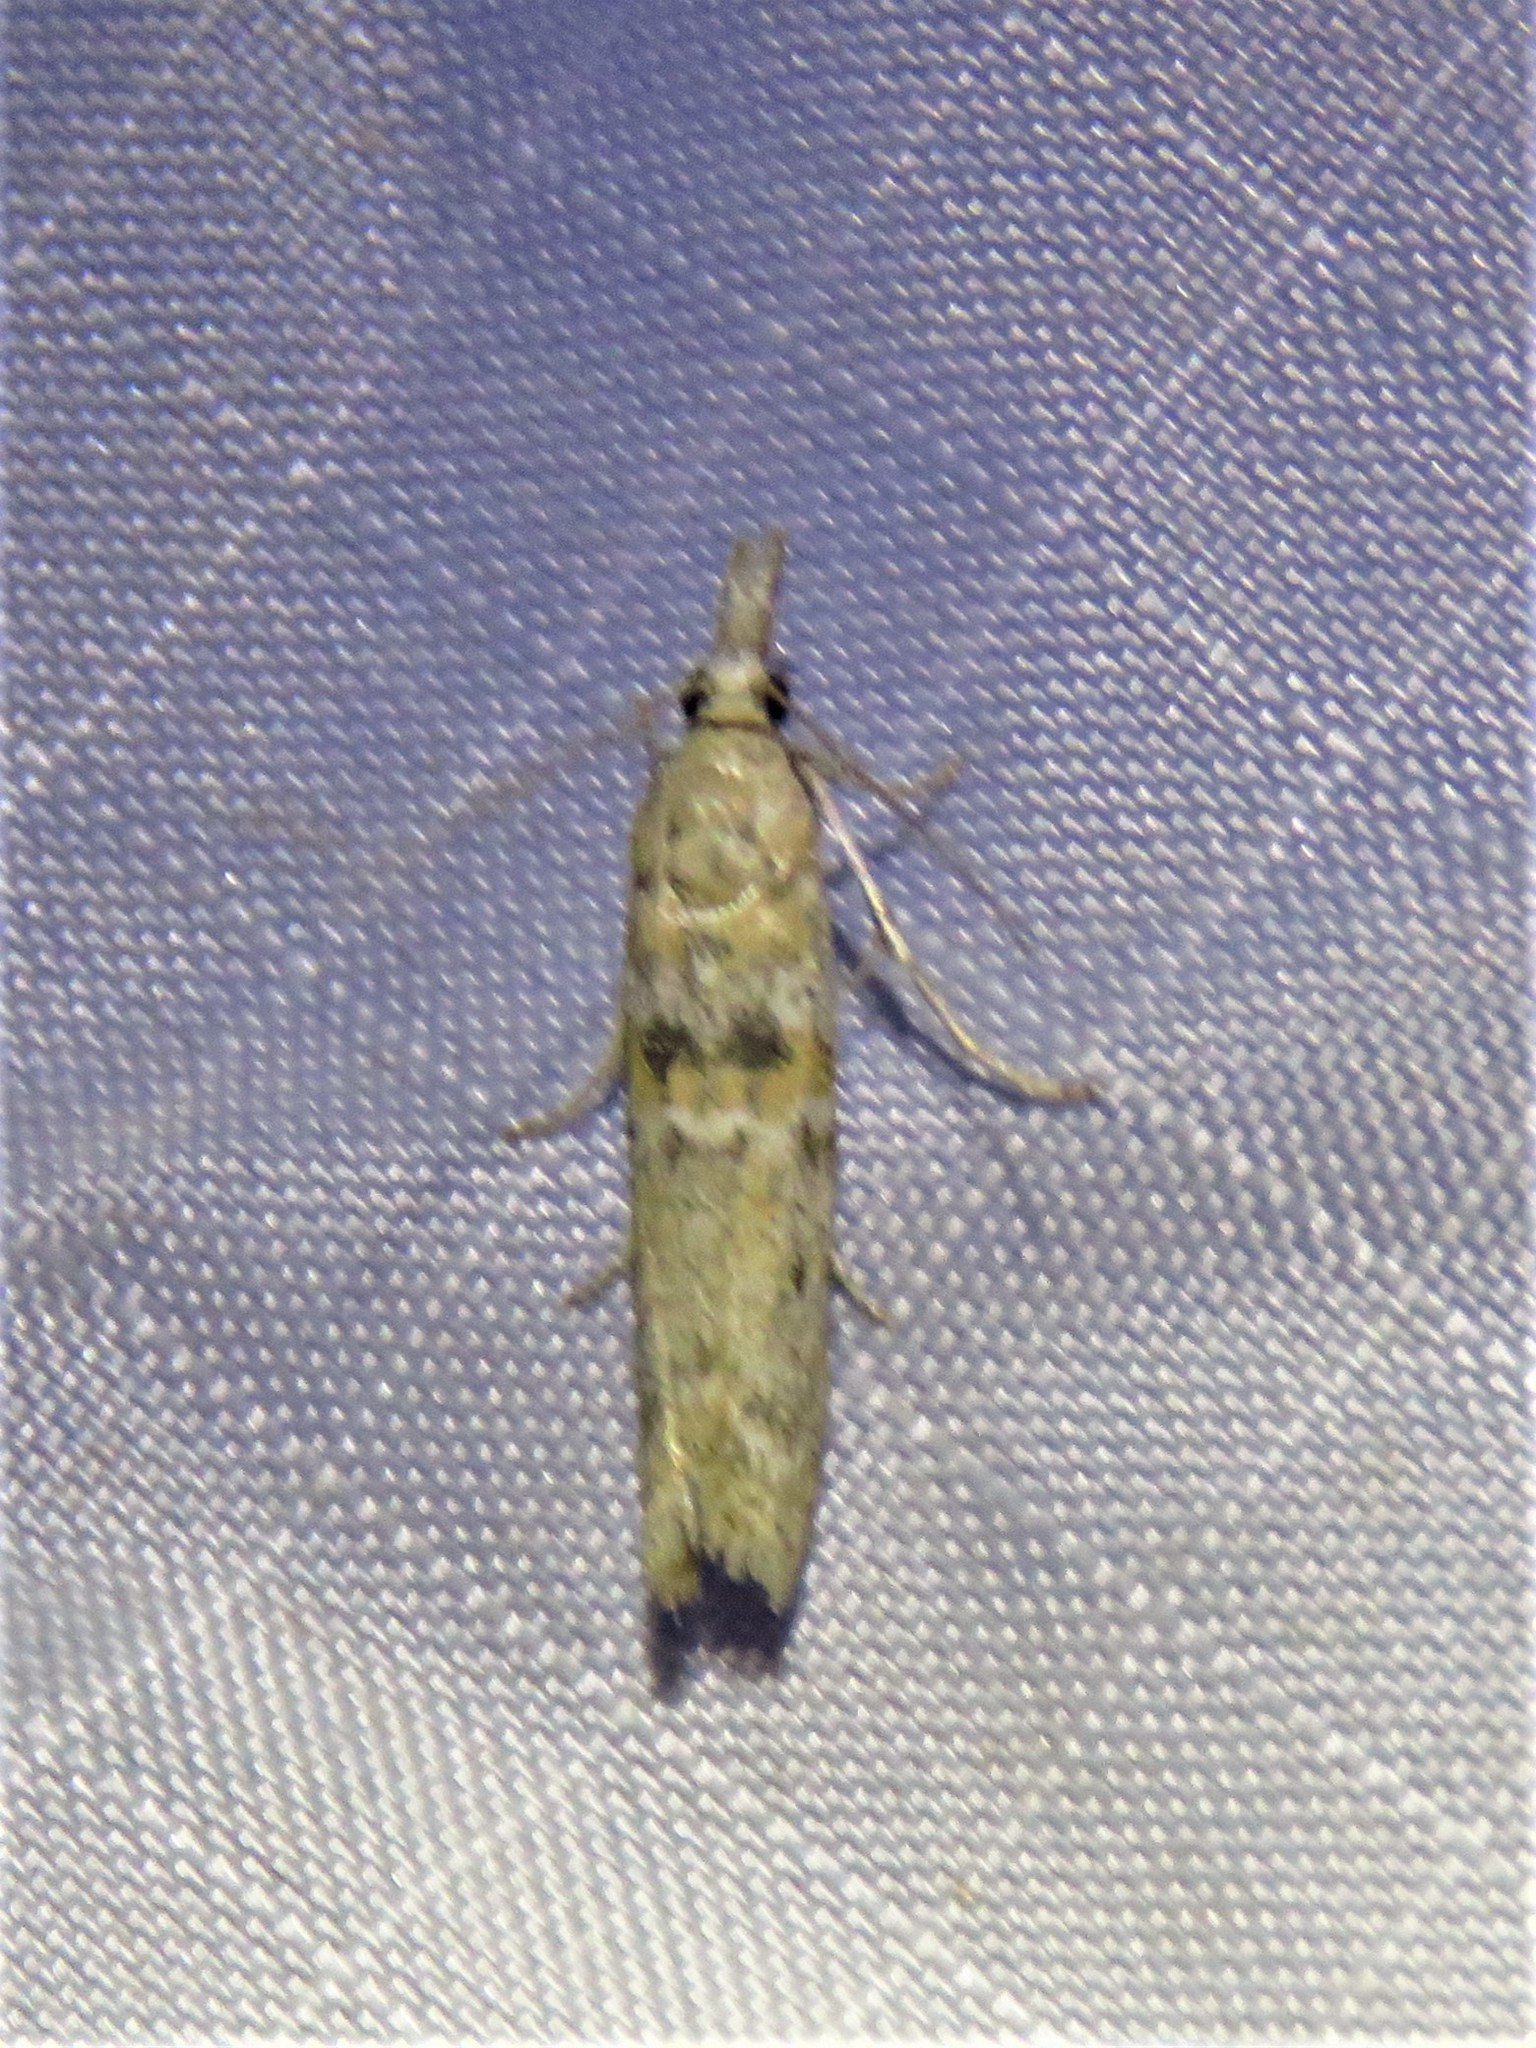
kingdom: Animalia
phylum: Arthropoda
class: Insecta
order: Lepidoptera
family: Pyralidae
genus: Macrorrhinia
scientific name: Macrorrhinia aureofasciella
